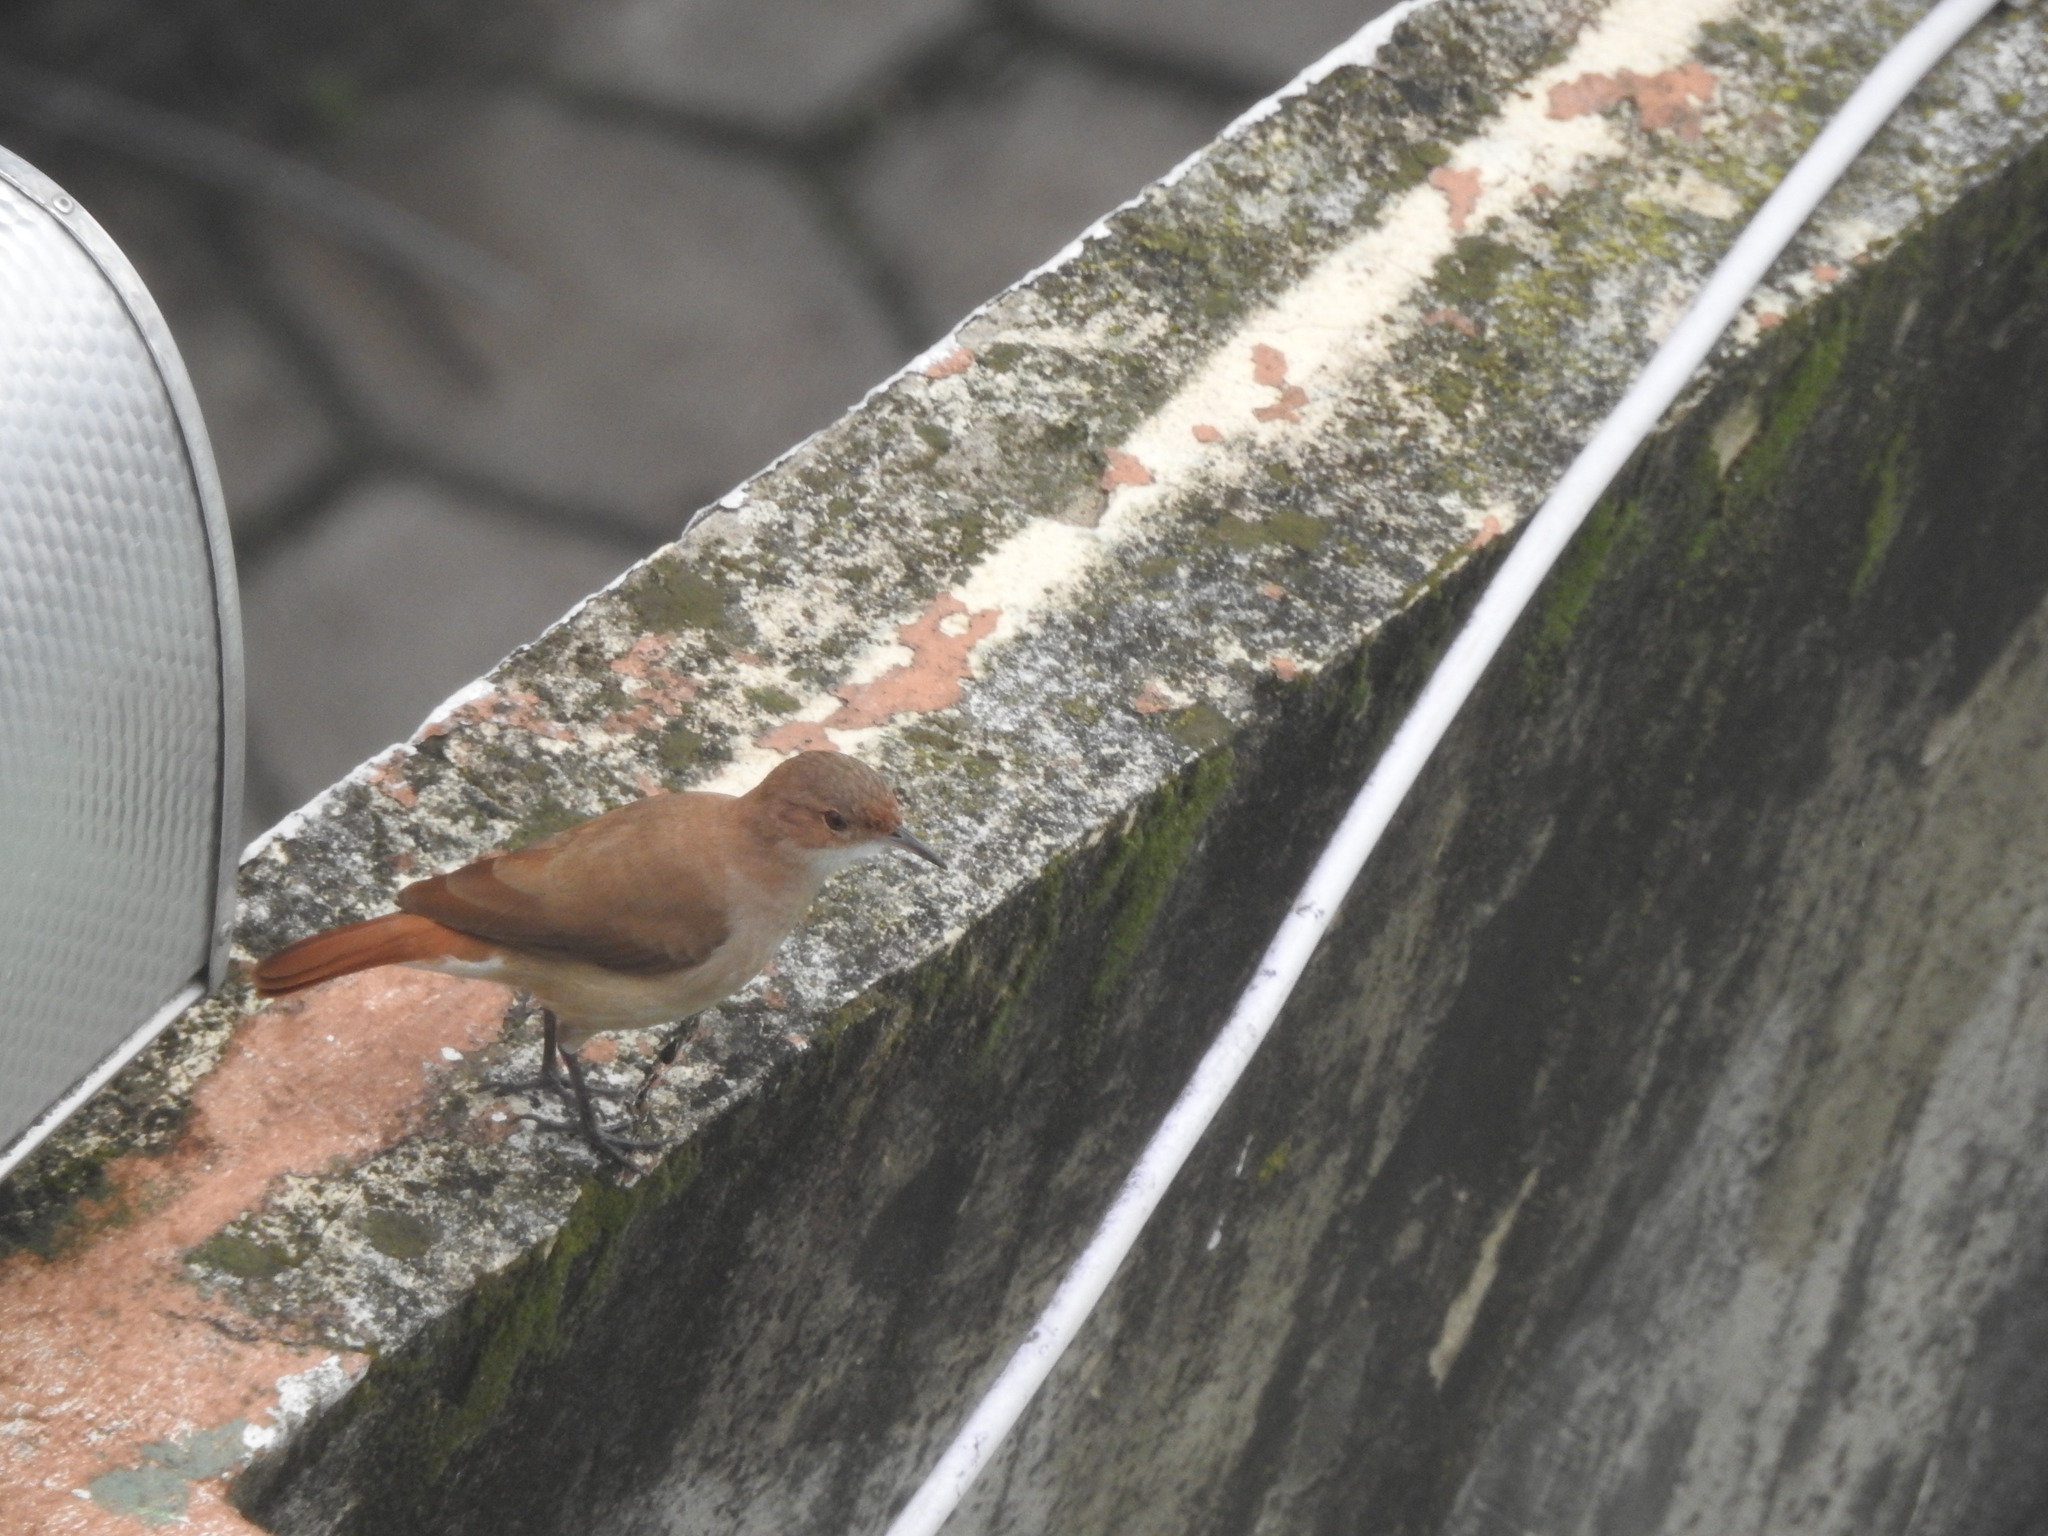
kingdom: Animalia
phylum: Chordata
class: Aves
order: Passeriformes
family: Furnariidae
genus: Furnarius
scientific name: Furnarius rufus
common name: Rufous hornero
